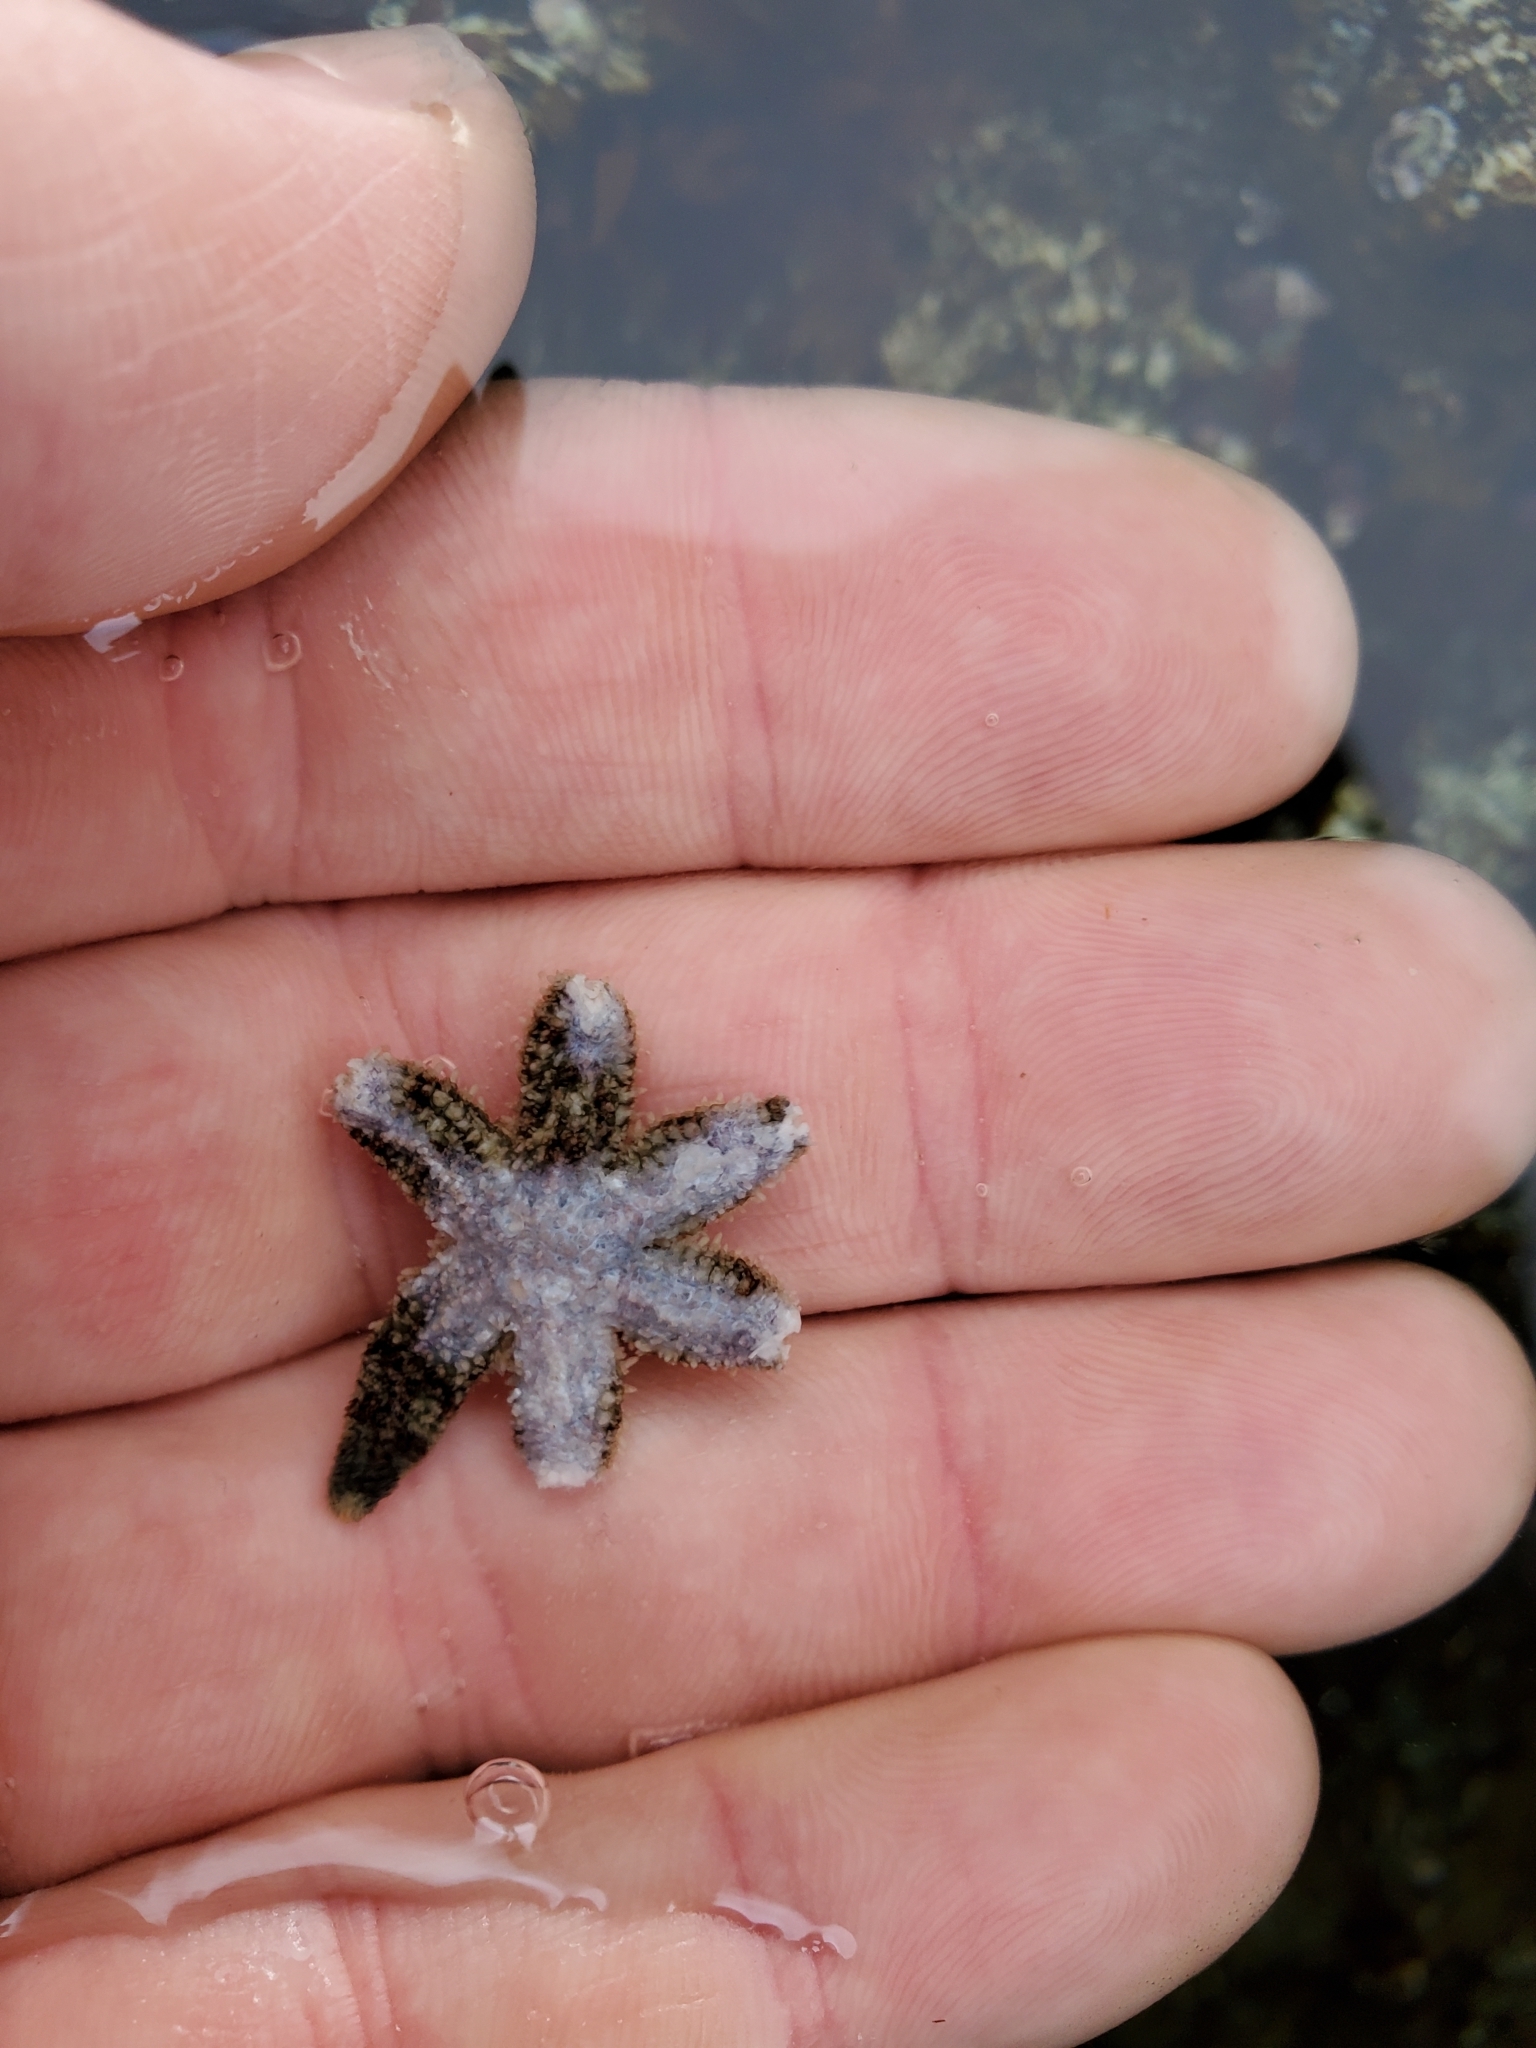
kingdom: Animalia
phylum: Echinodermata
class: Asteroidea
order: Forcipulatida
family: Asteriidae
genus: Leptasterias
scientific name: Leptasterias hexactis
